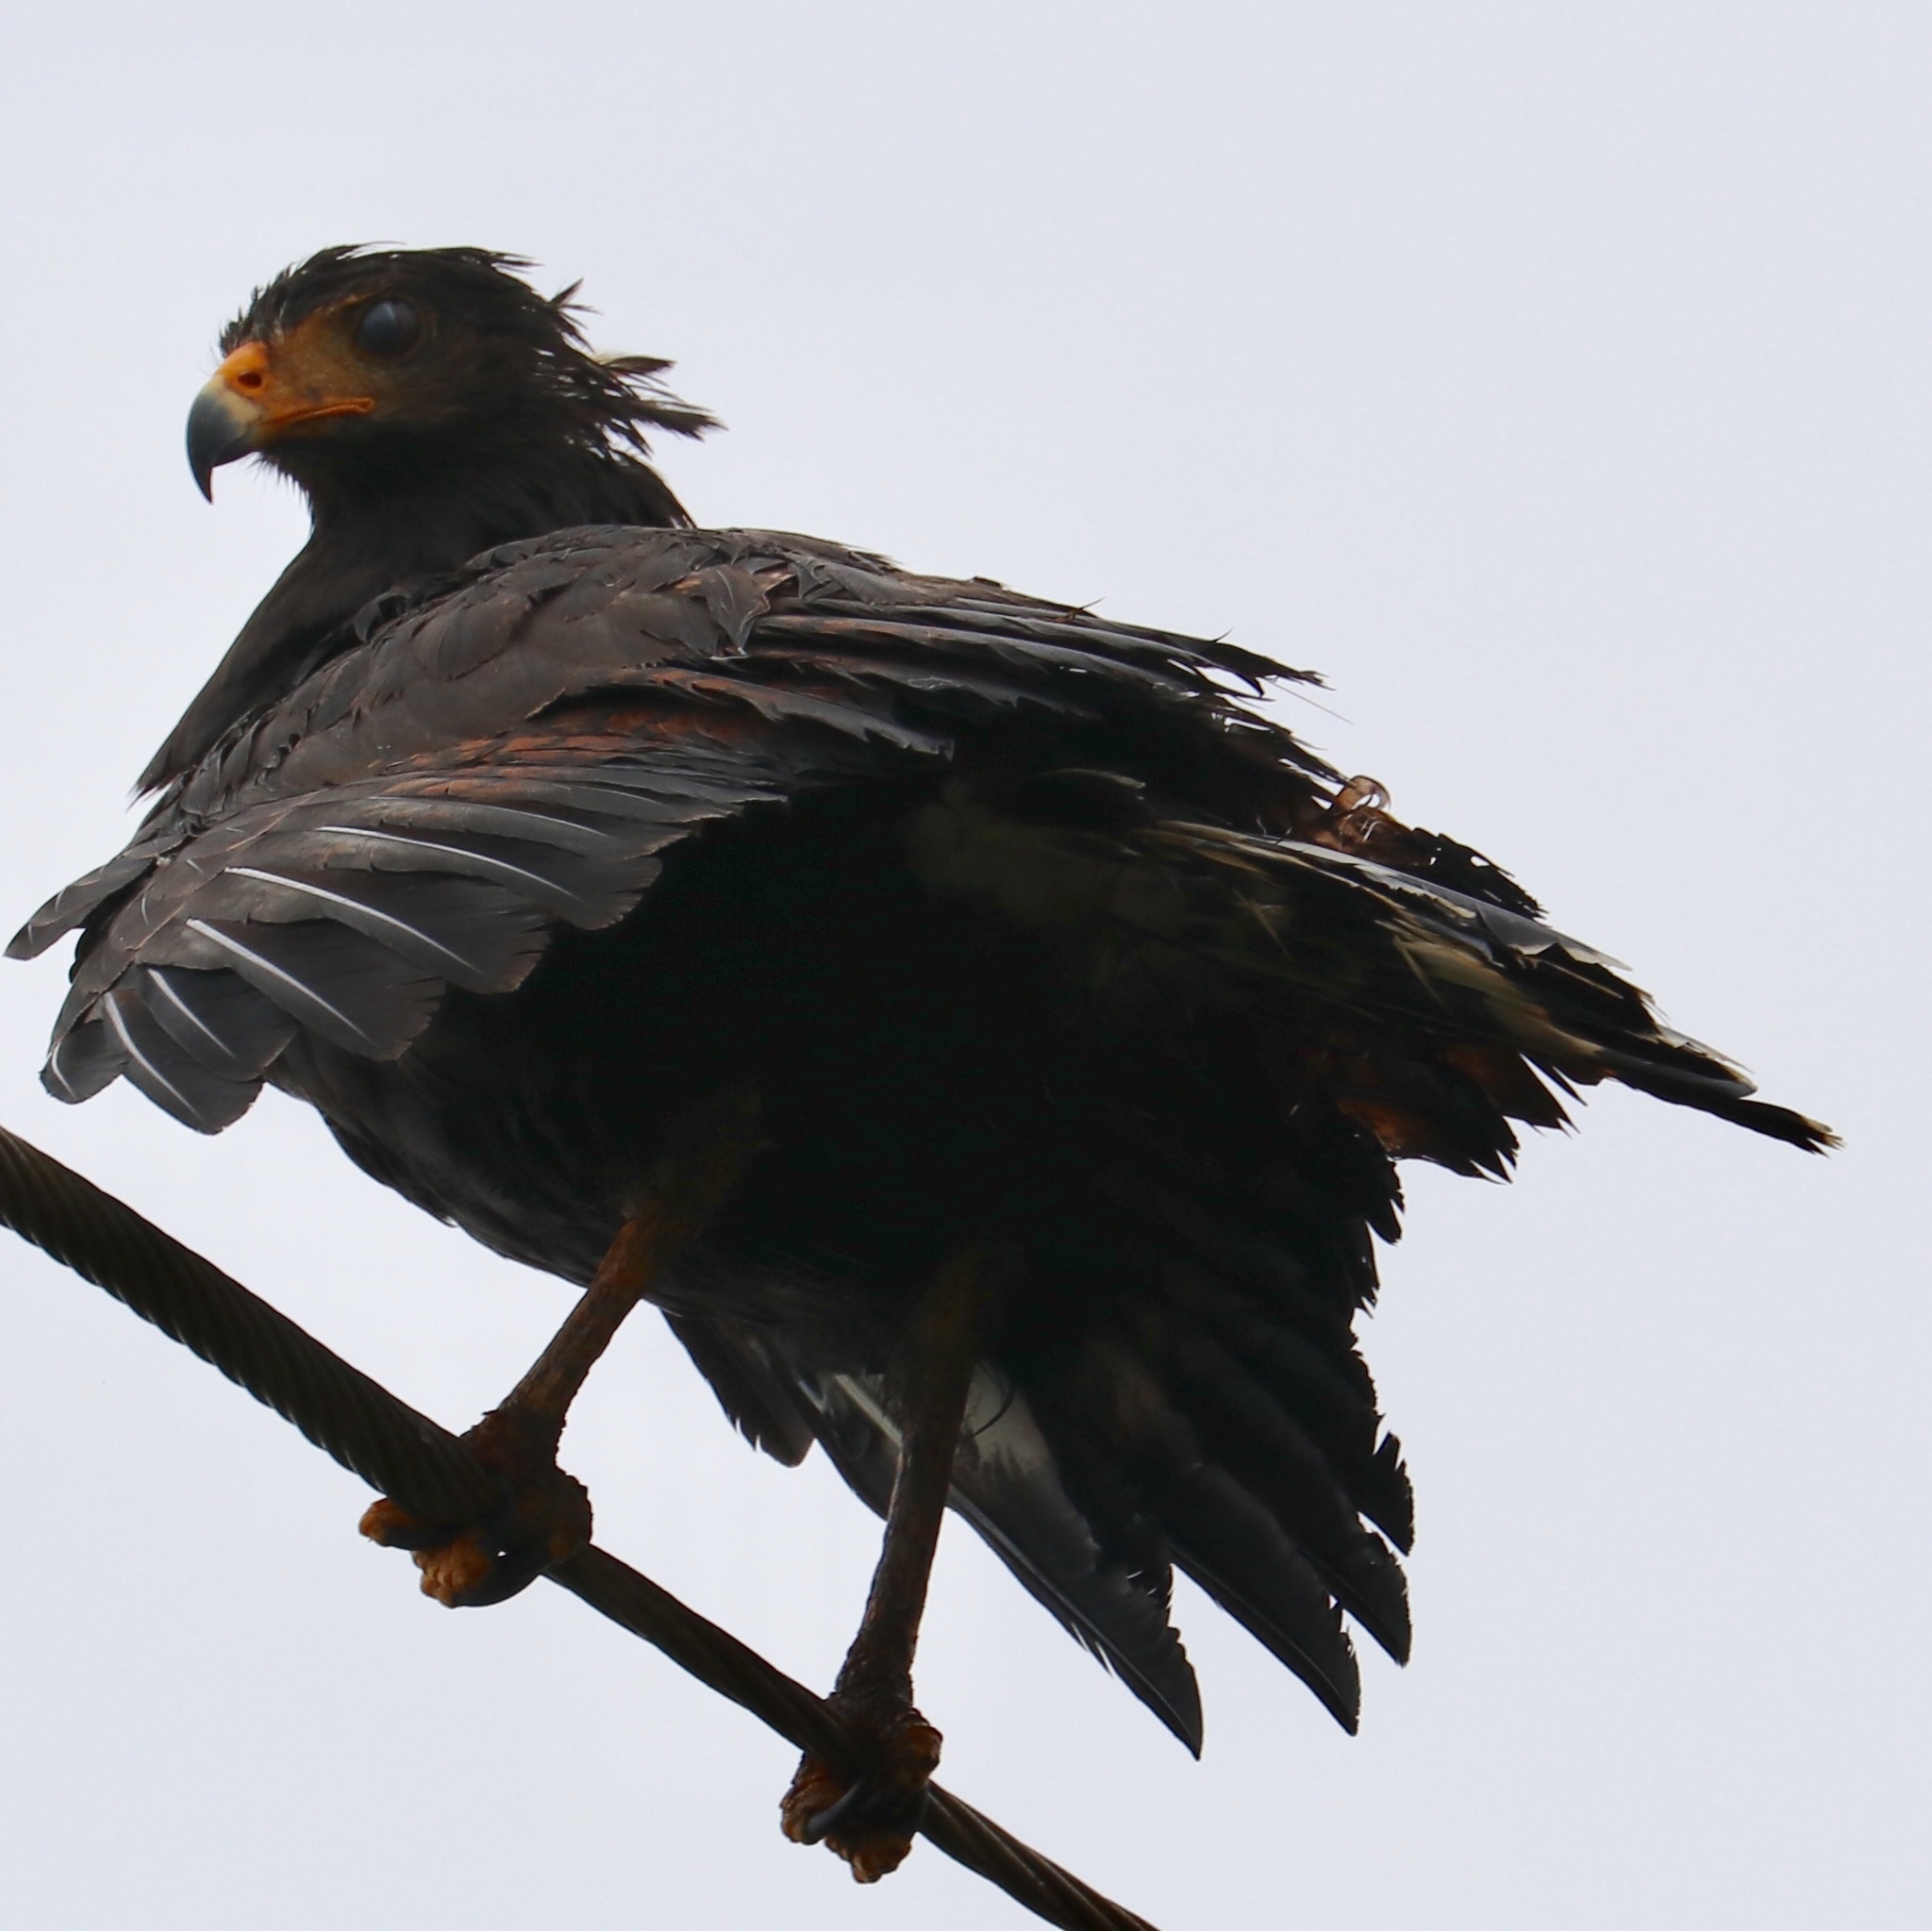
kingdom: Animalia
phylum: Chordata
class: Aves
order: Accipitriformes
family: Accipitridae
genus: Buteogallus
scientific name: Buteogallus anthracinus
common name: Common black hawk
